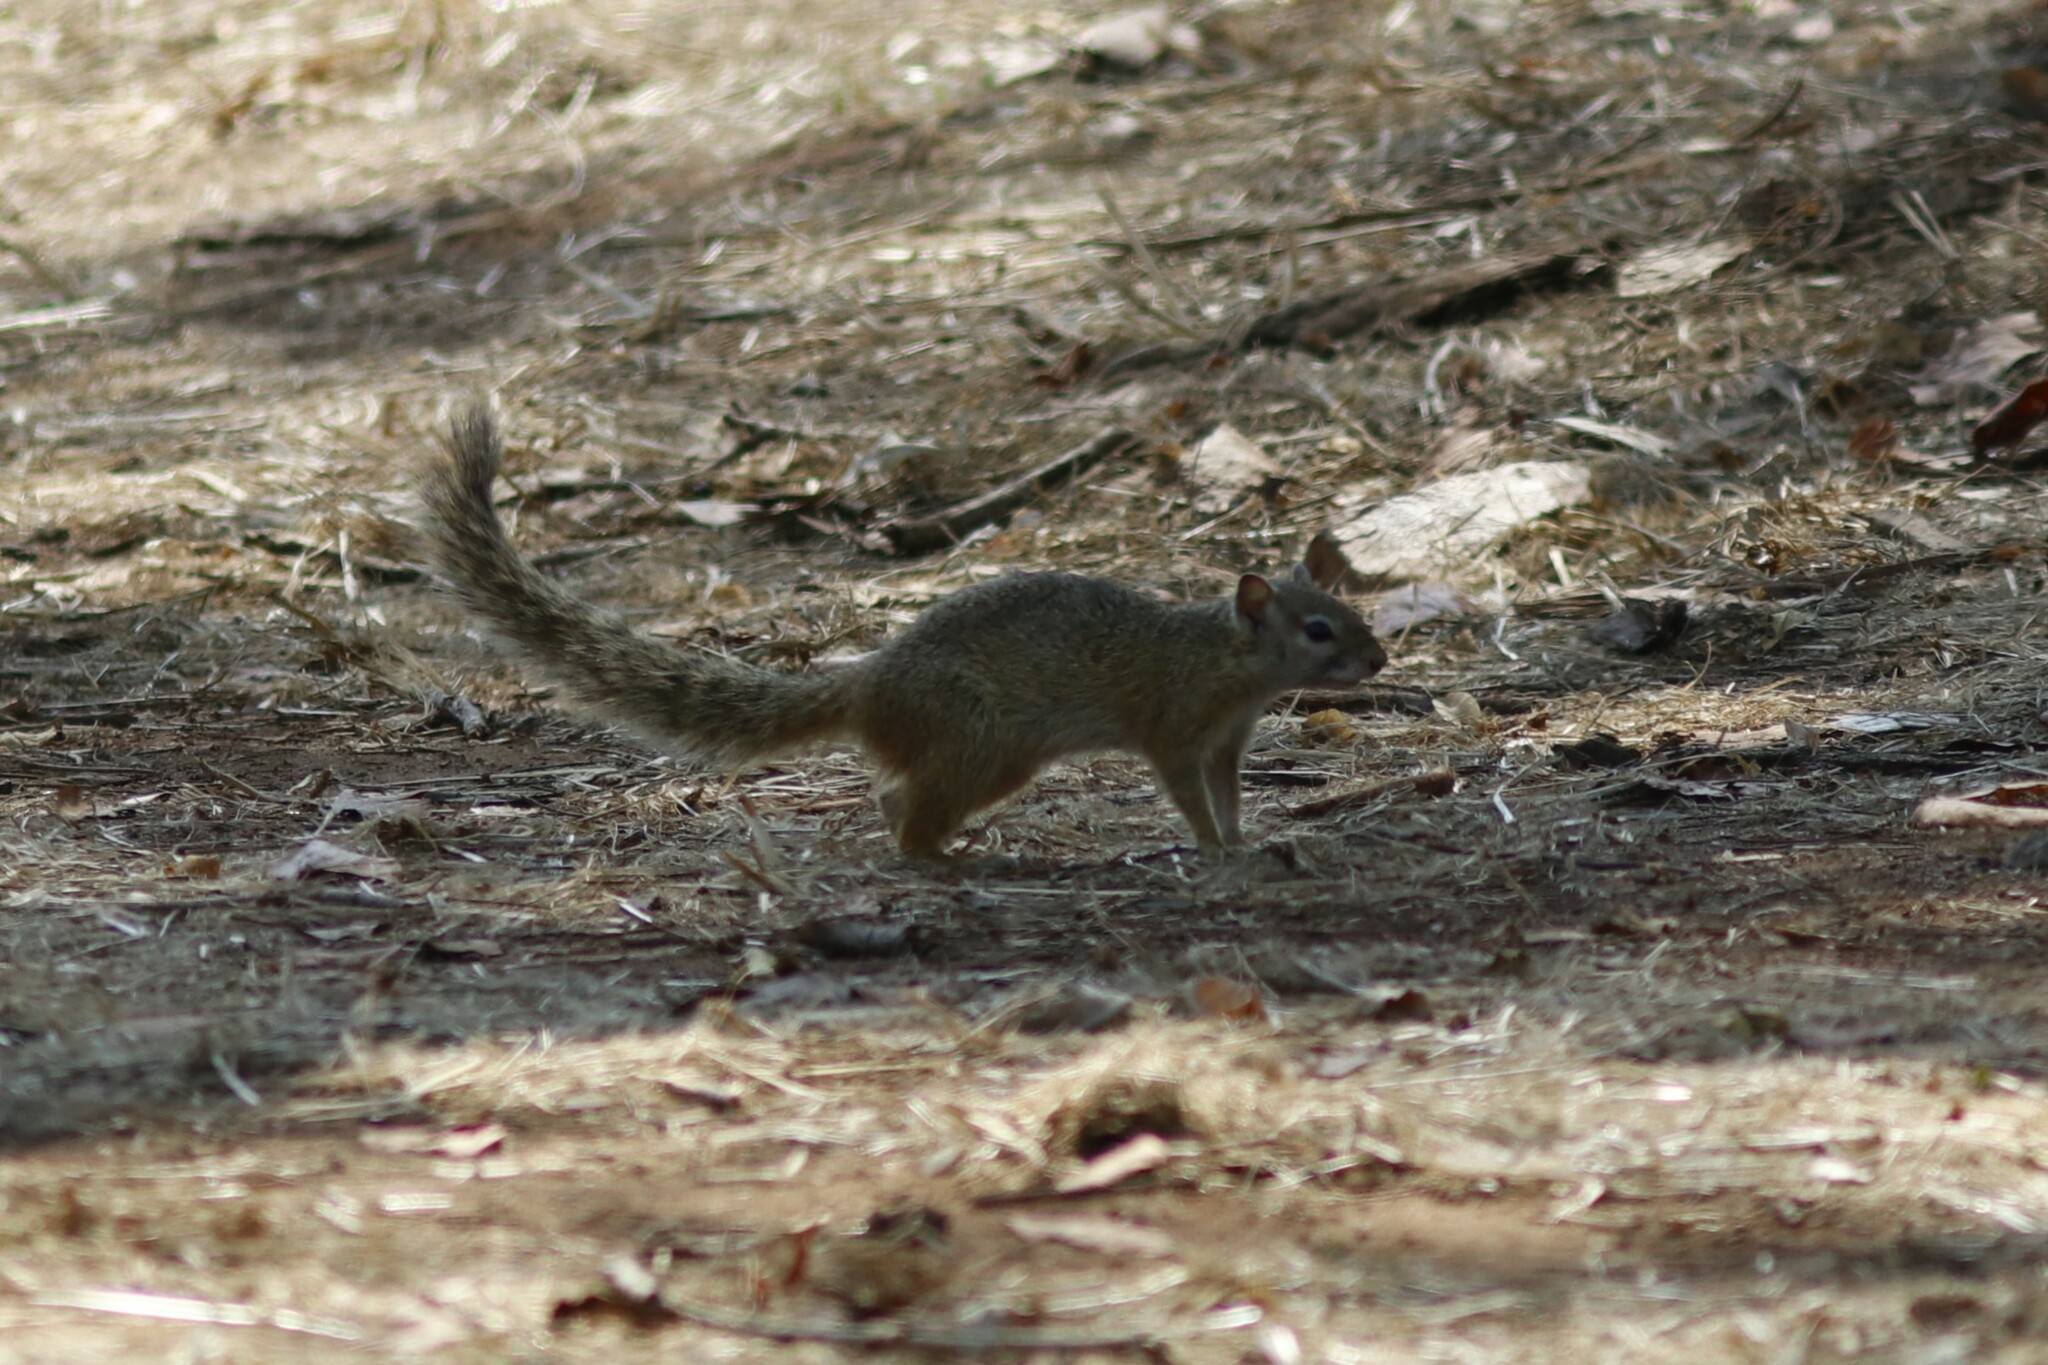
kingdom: Animalia
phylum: Chordata
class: Mammalia
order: Rodentia
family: Sciuridae
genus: Paraxerus
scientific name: Paraxerus cepapi
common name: Smith's bush squirrel
